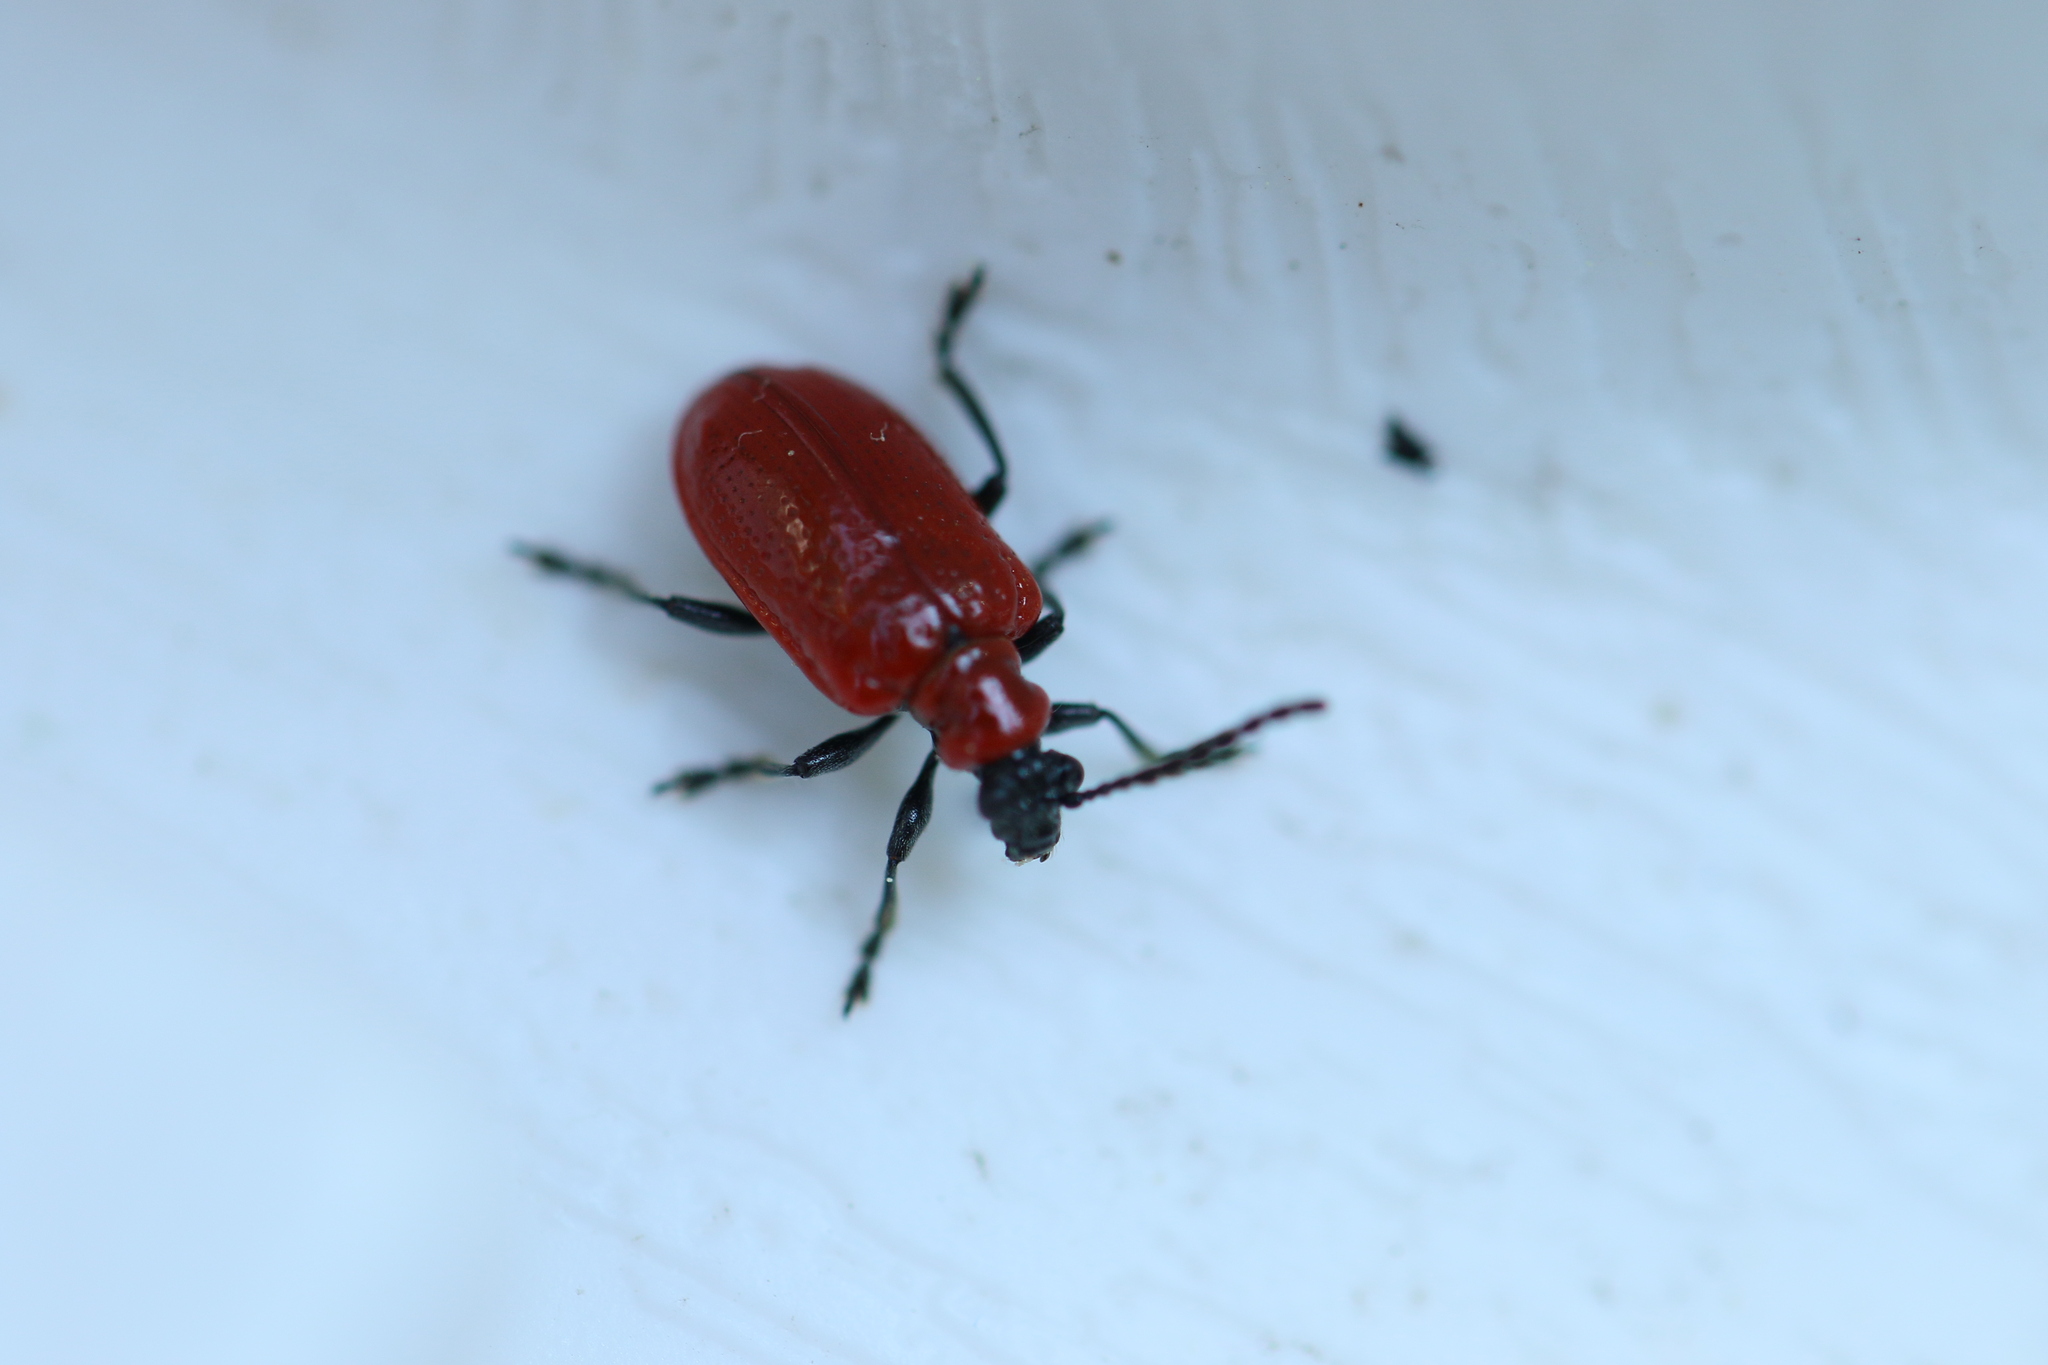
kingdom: Animalia
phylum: Arthropoda
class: Insecta
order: Coleoptera
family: Chrysomelidae
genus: Lilioceris
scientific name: Lilioceris lilii
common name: Lily beetle
